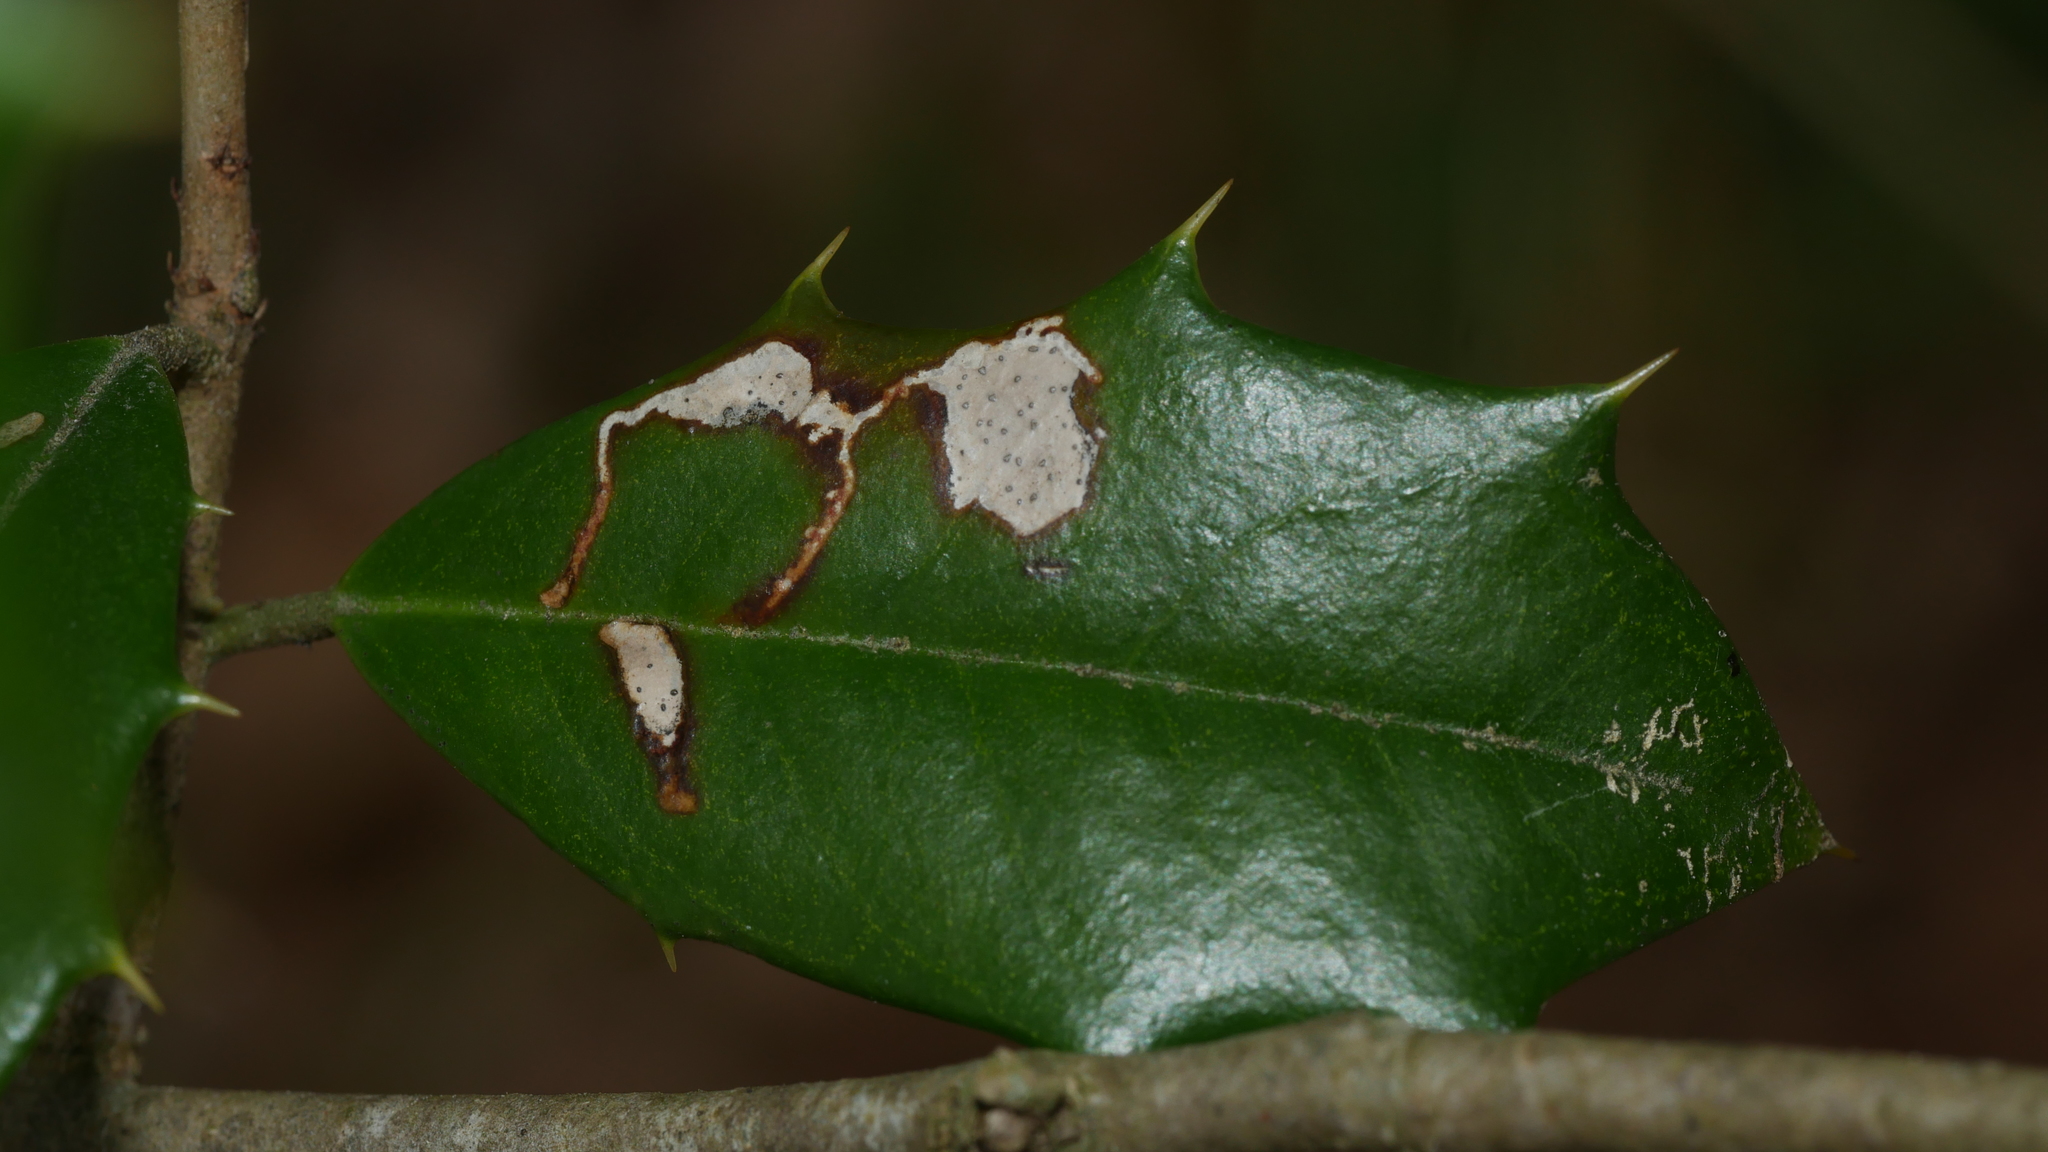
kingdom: Animalia
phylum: Arthropoda
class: Insecta
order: Lepidoptera
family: Tortricidae
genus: Rhopobota
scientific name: Rhopobota
